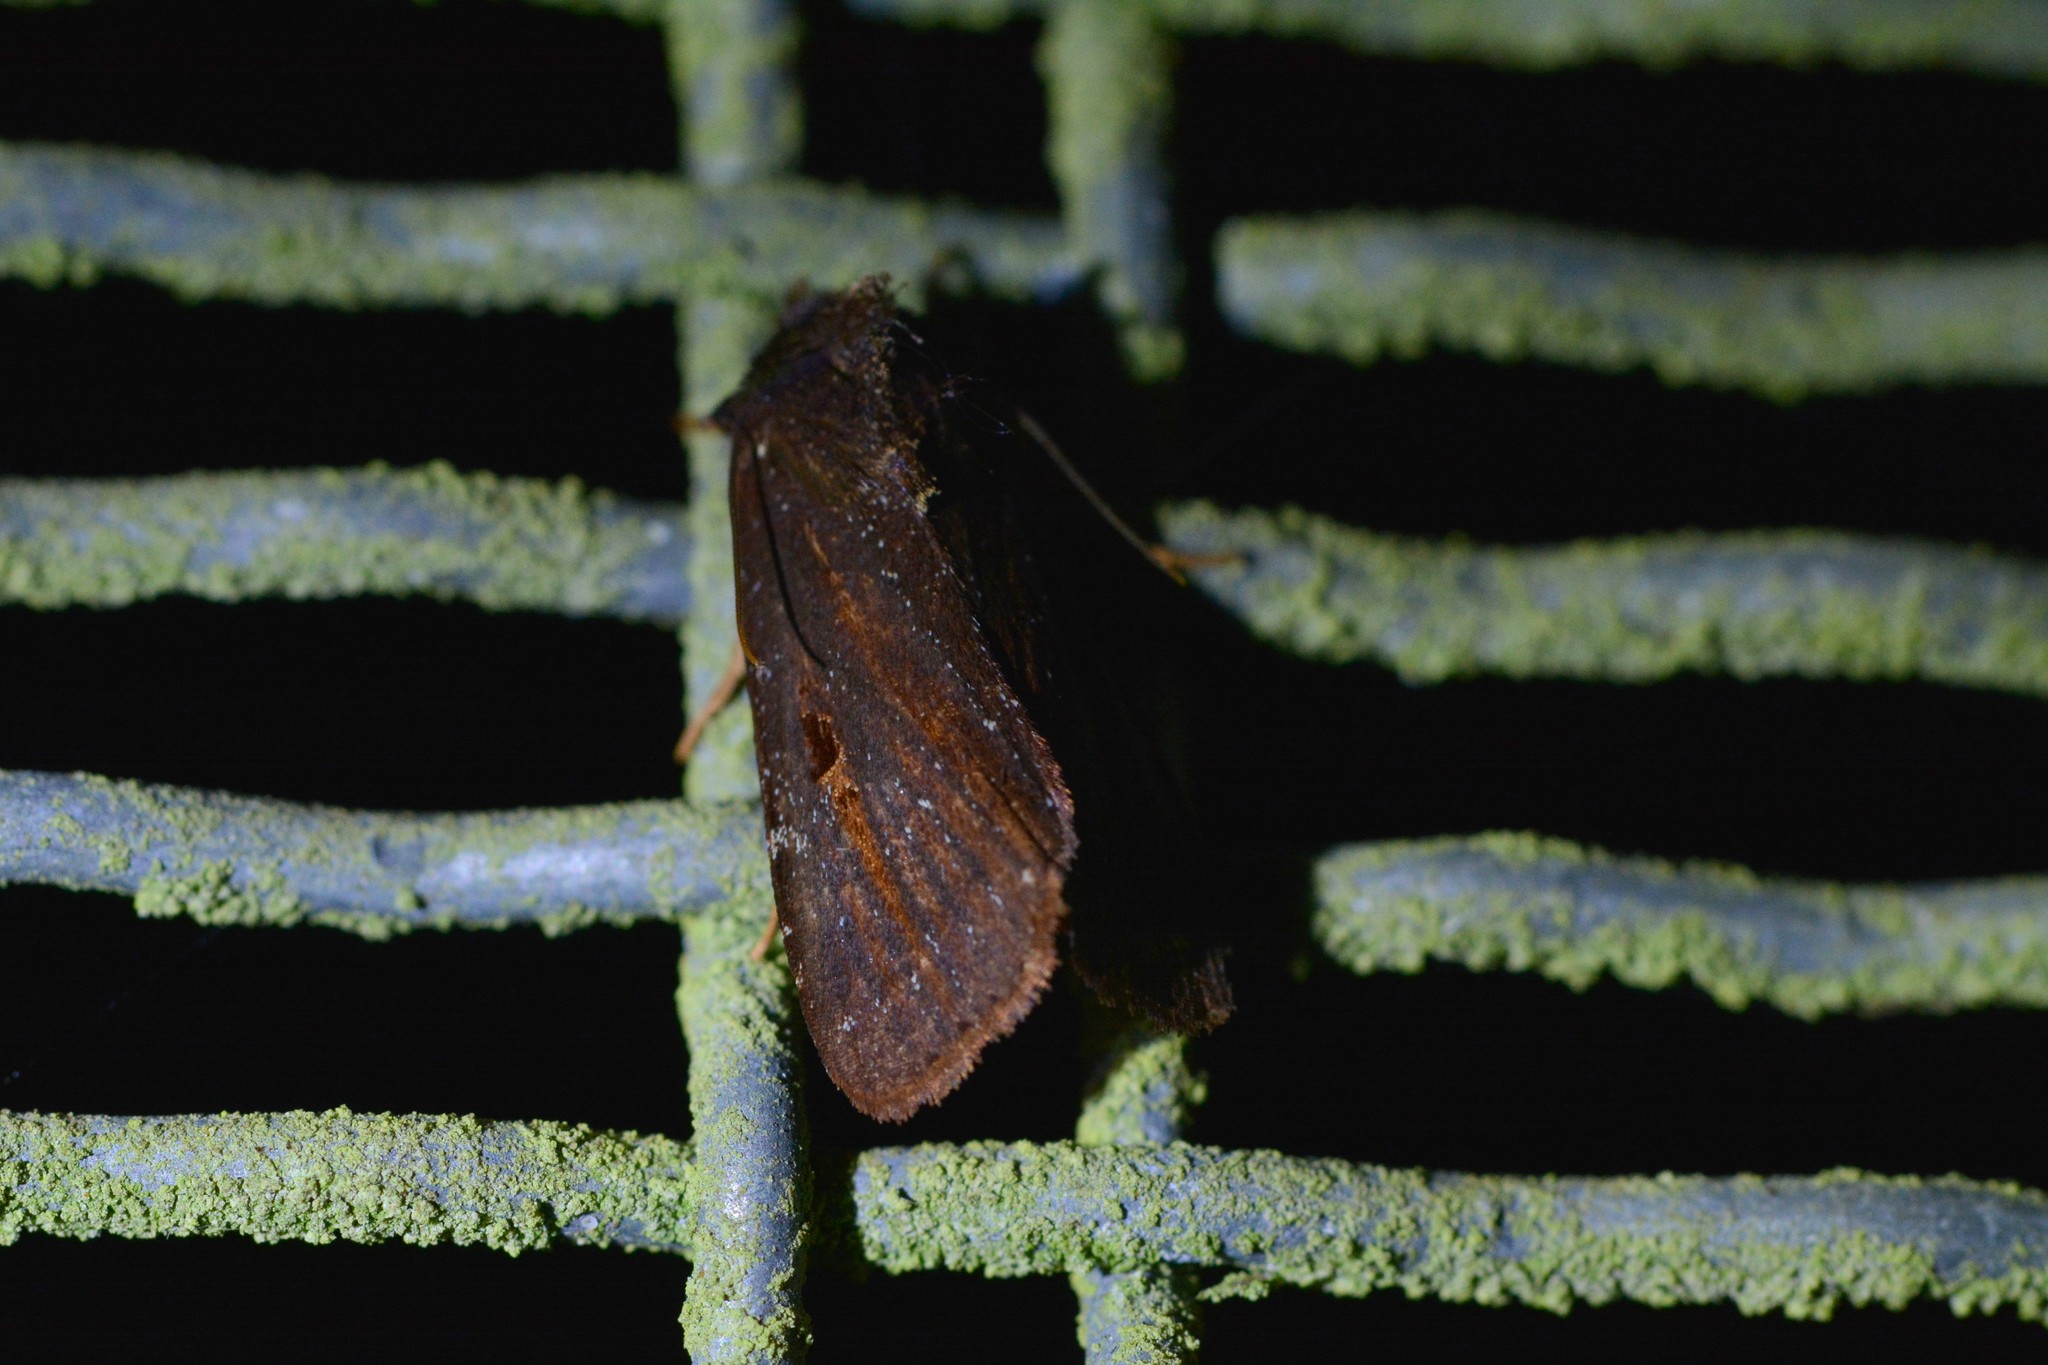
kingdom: Animalia
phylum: Arthropoda
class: Insecta
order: Lepidoptera
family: Noctuidae
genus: Austramathes
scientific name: Austramathes purpurea
